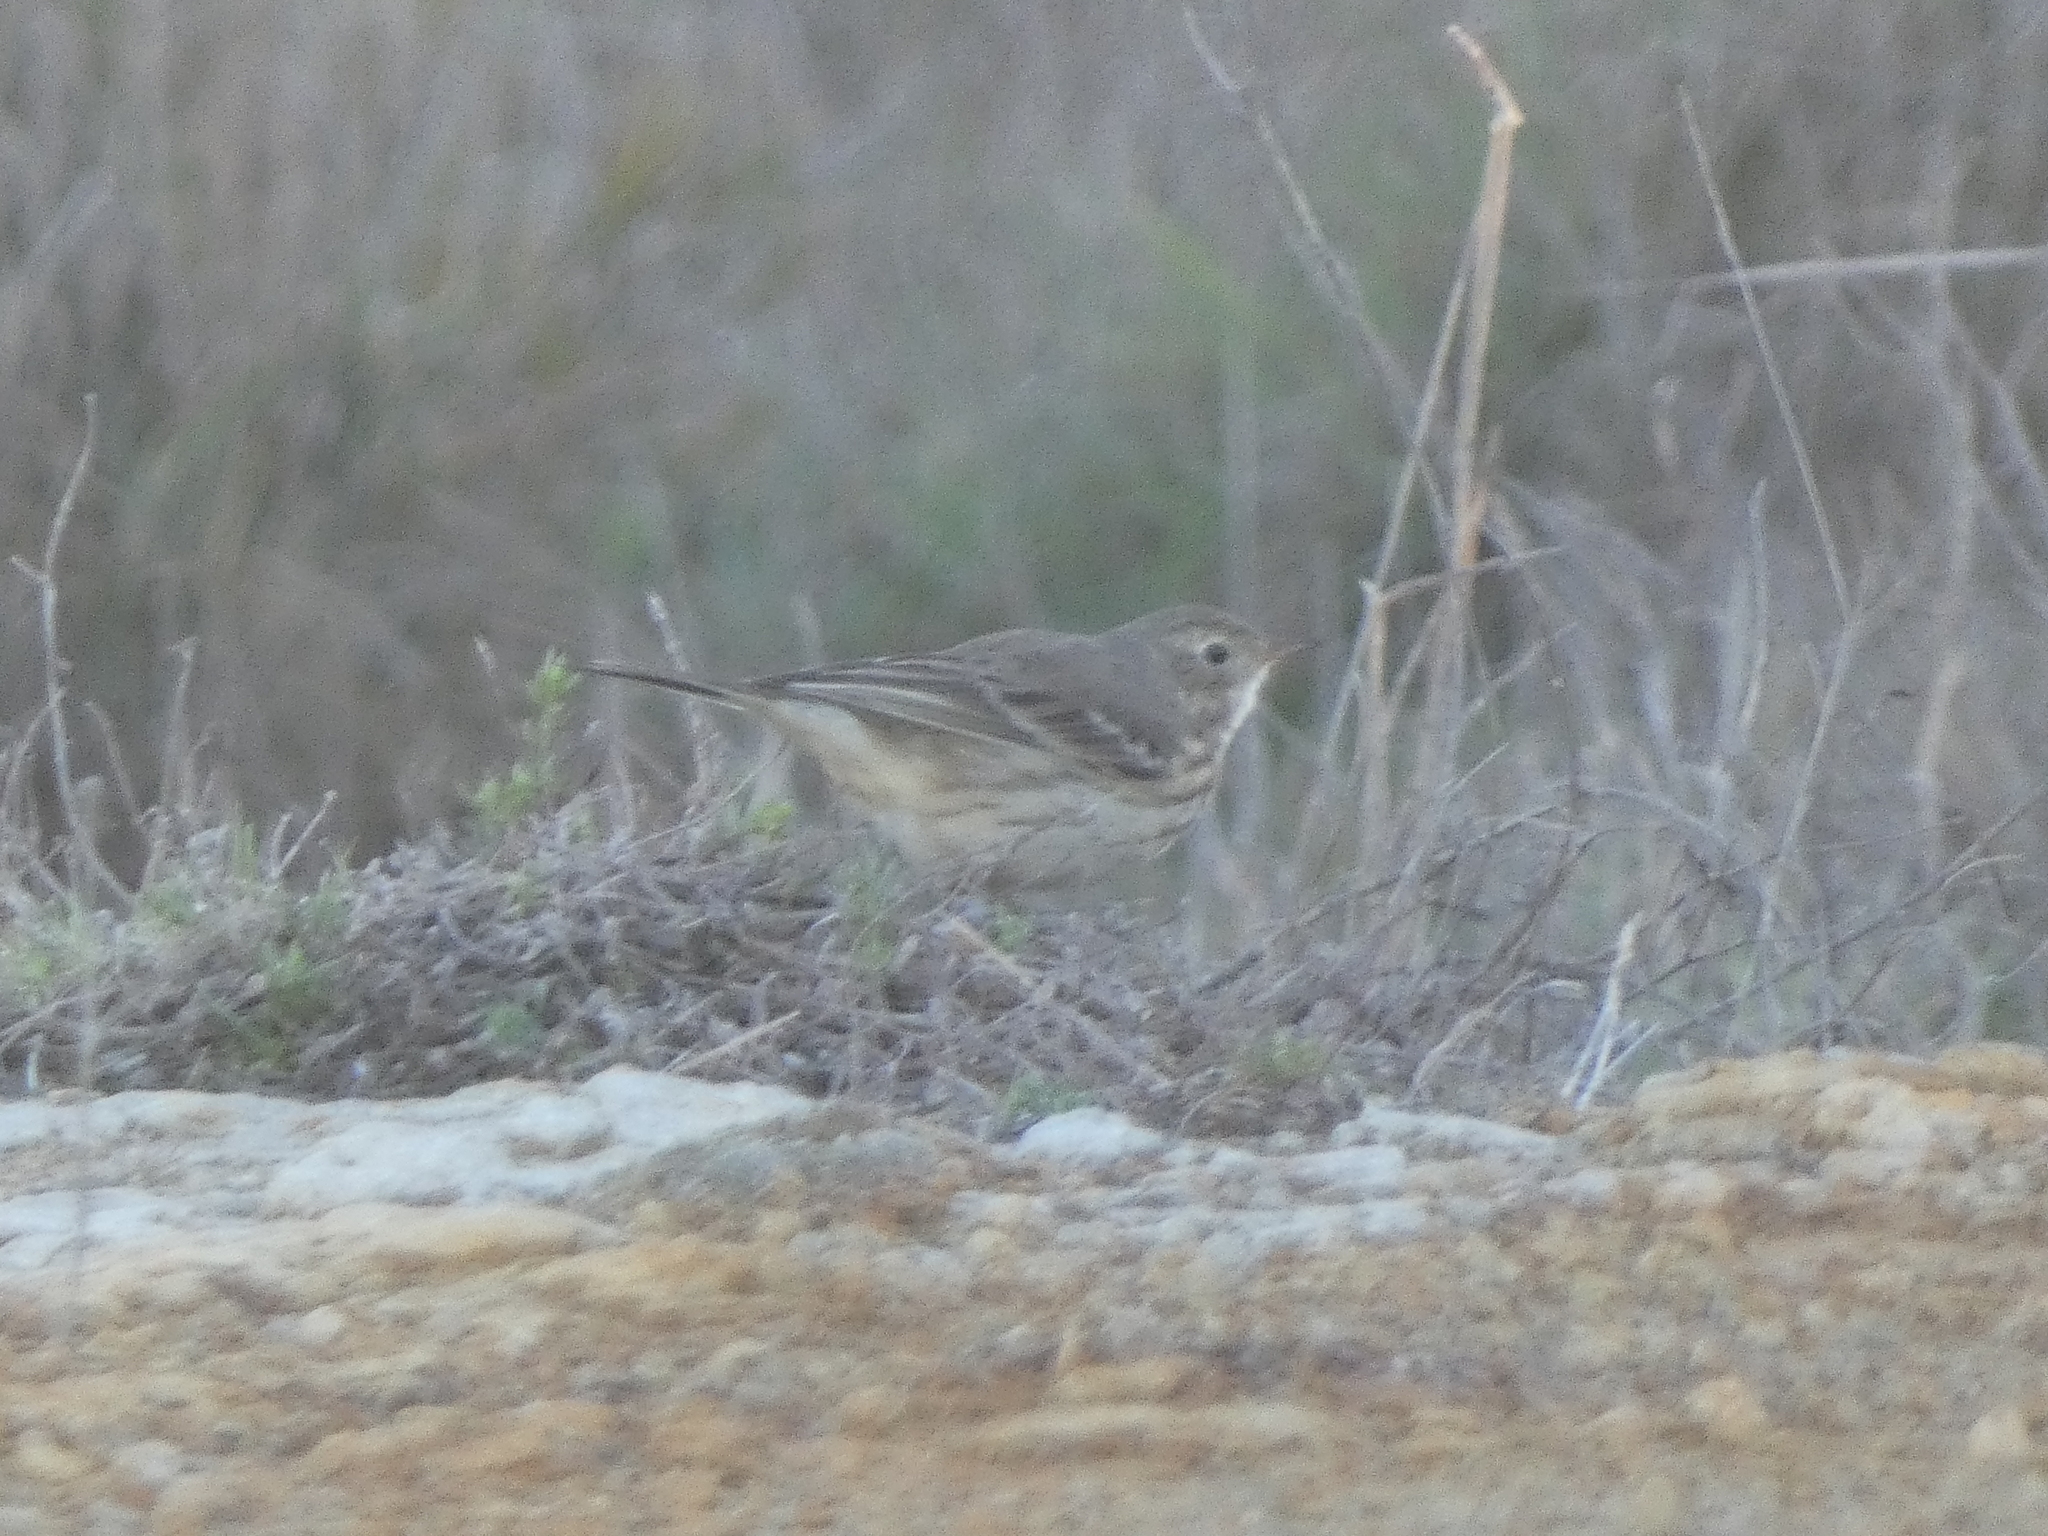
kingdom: Animalia
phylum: Chordata
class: Aves
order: Passeriformes
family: Motacillidae
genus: Anthus
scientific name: Anthus rubescens
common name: Buff-bellied pipit
